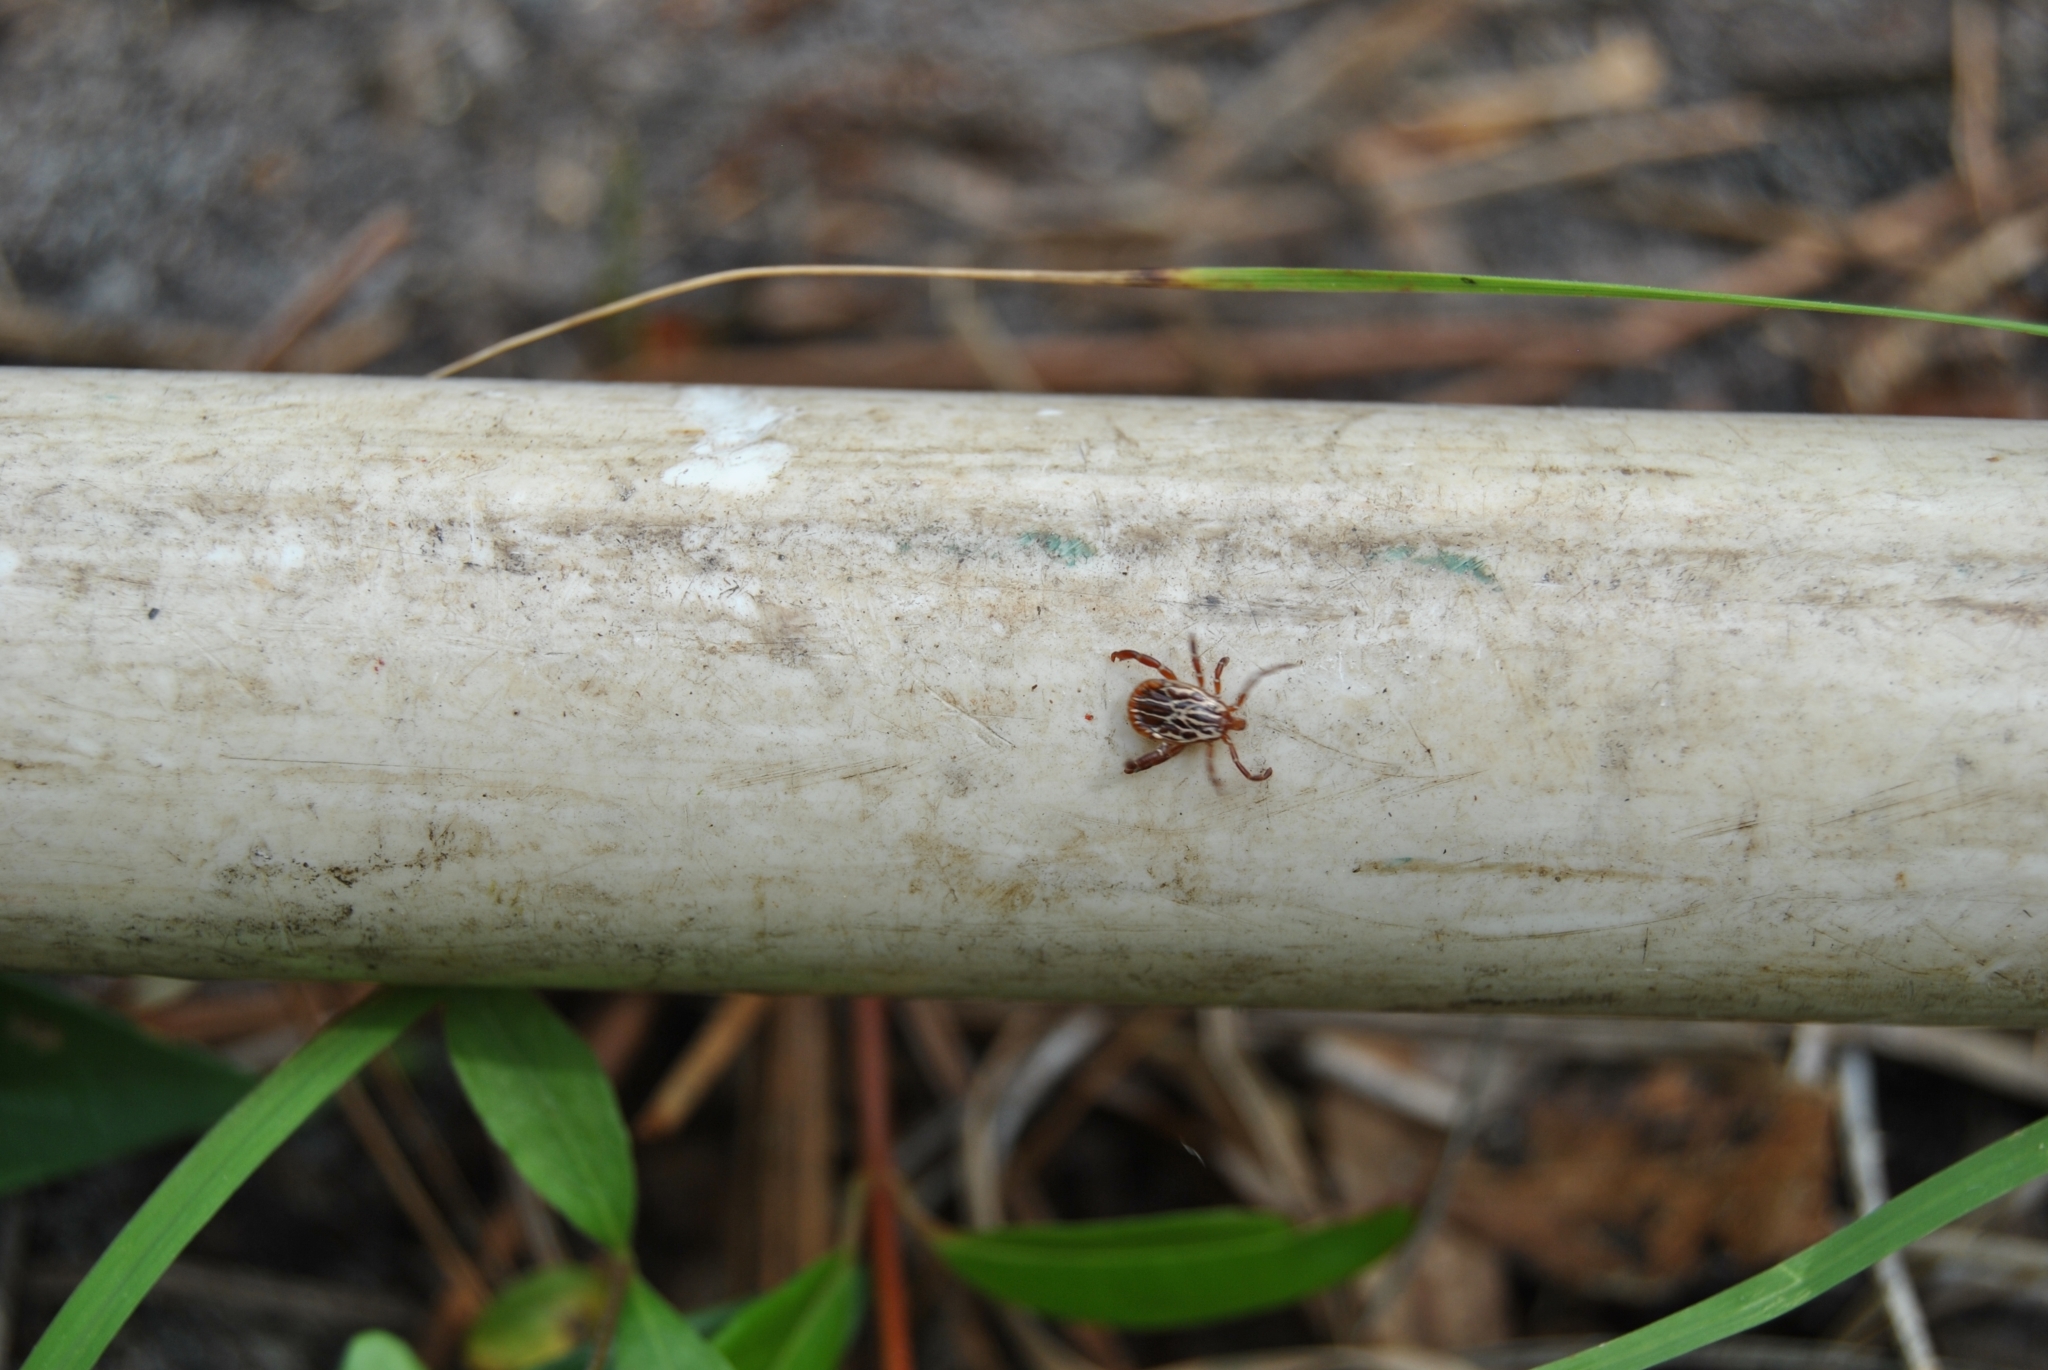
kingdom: Animalia
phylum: Arthropoda
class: Arachnida
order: Ixodida
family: Ixodidae
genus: Amblyomma
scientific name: Amblyomma maculatum
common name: Gulf coast tick
